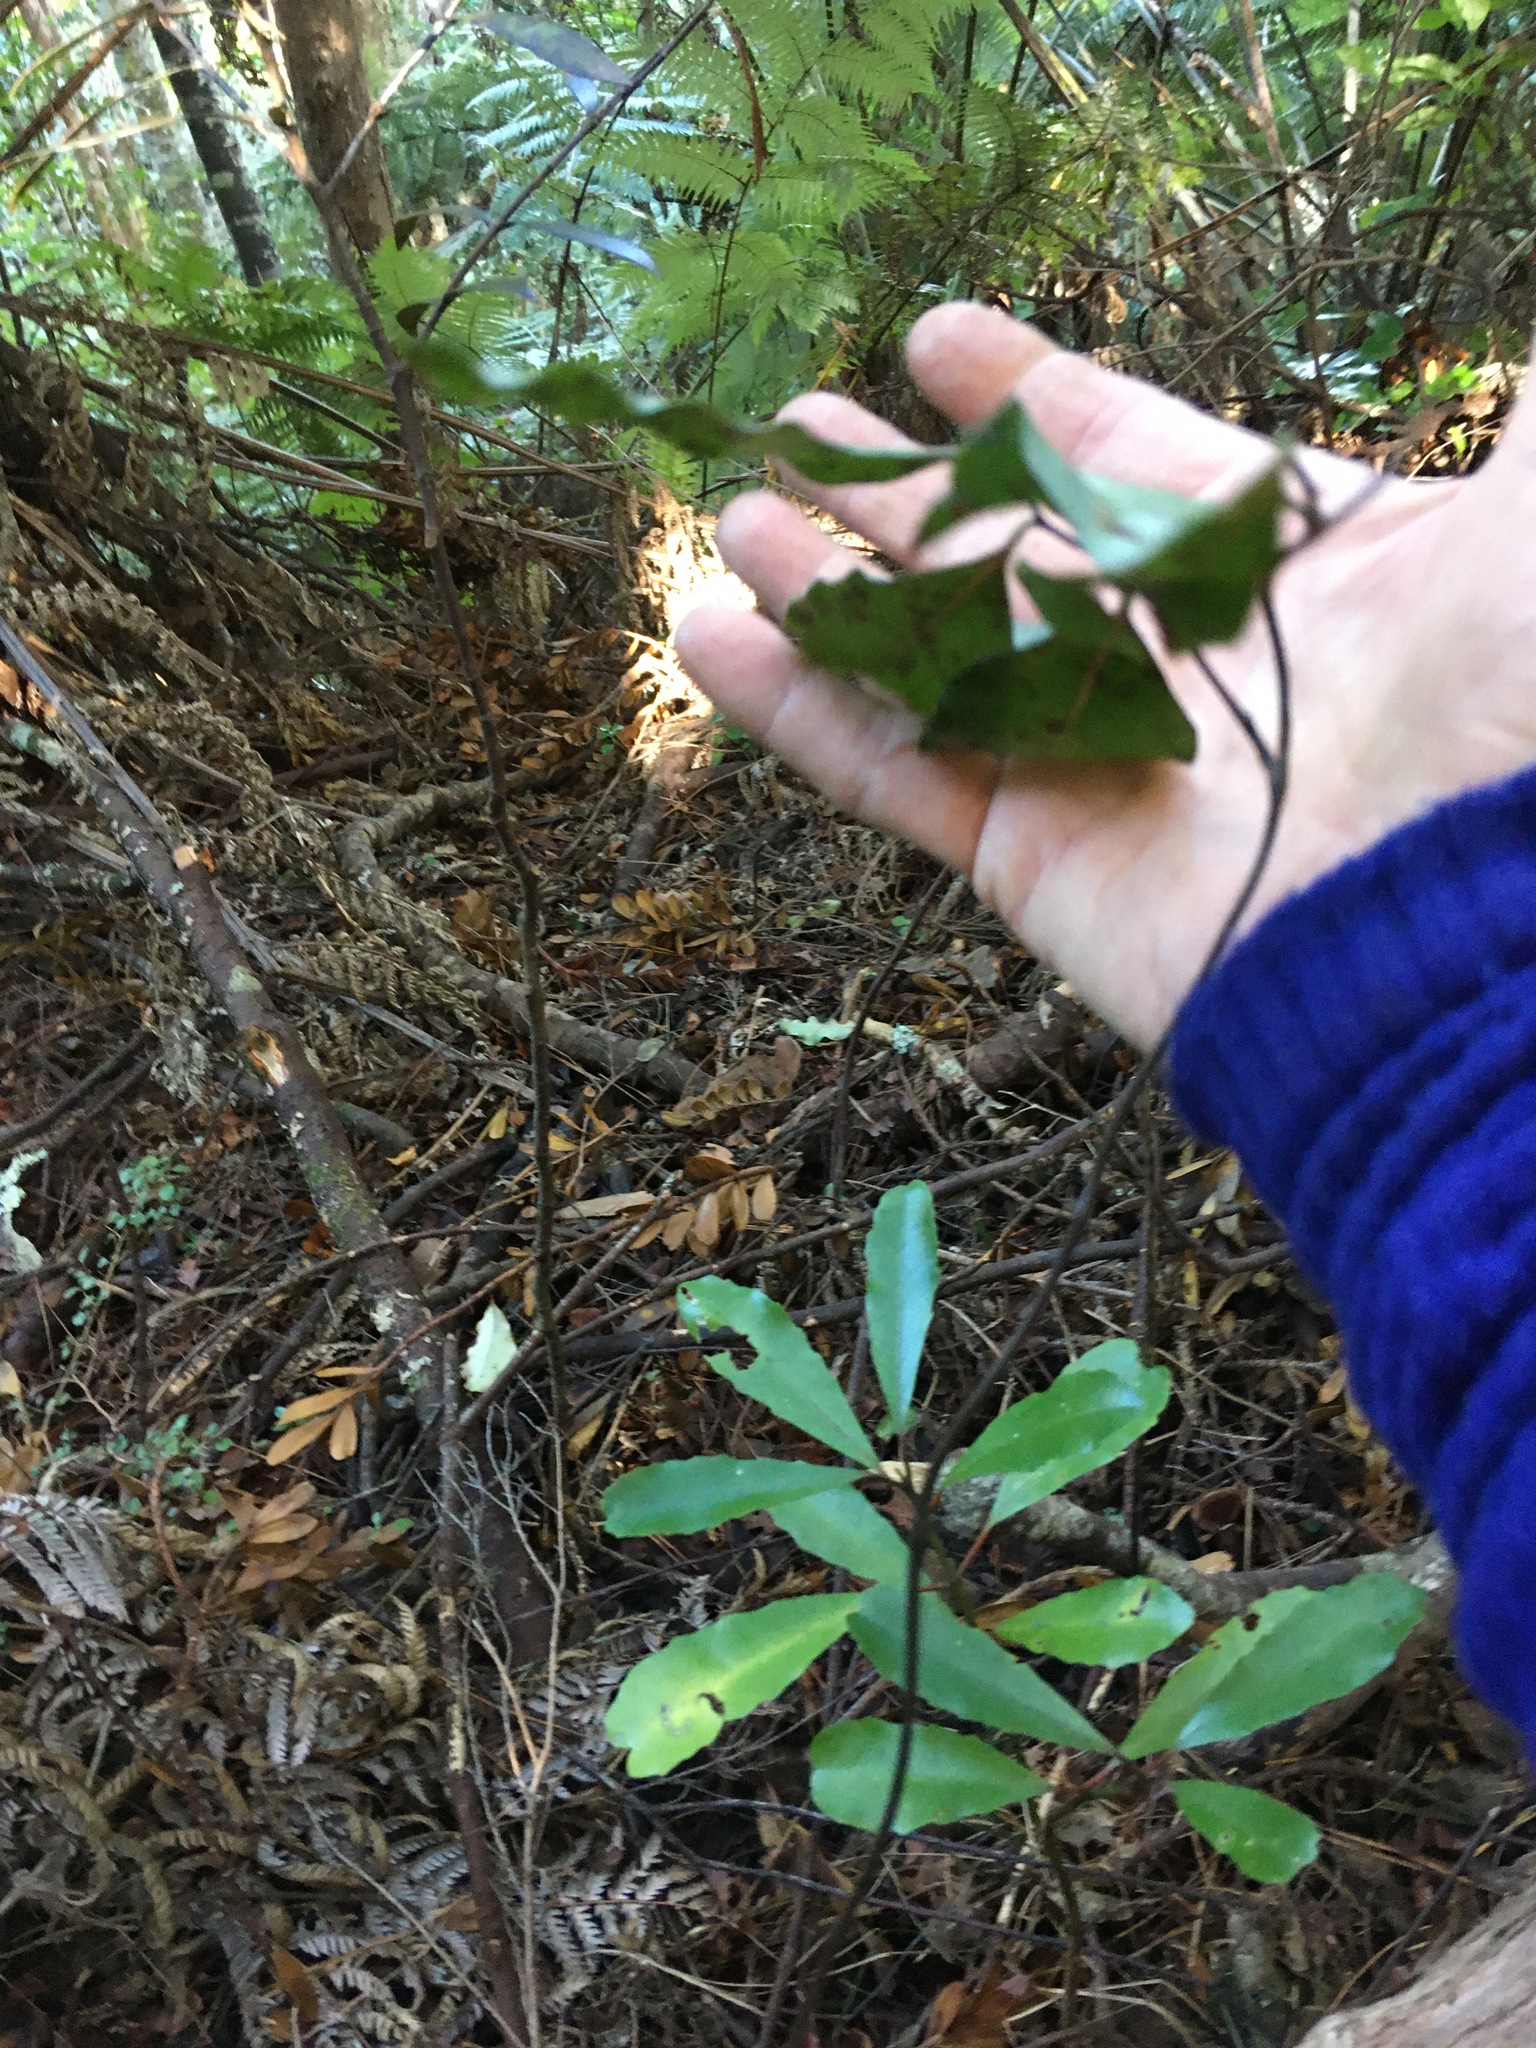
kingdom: Plantae
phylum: Tracheophyta
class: Liliopsida
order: Liliales
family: Ripogonaceae
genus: Ripogonum
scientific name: Ripogonum scandens
